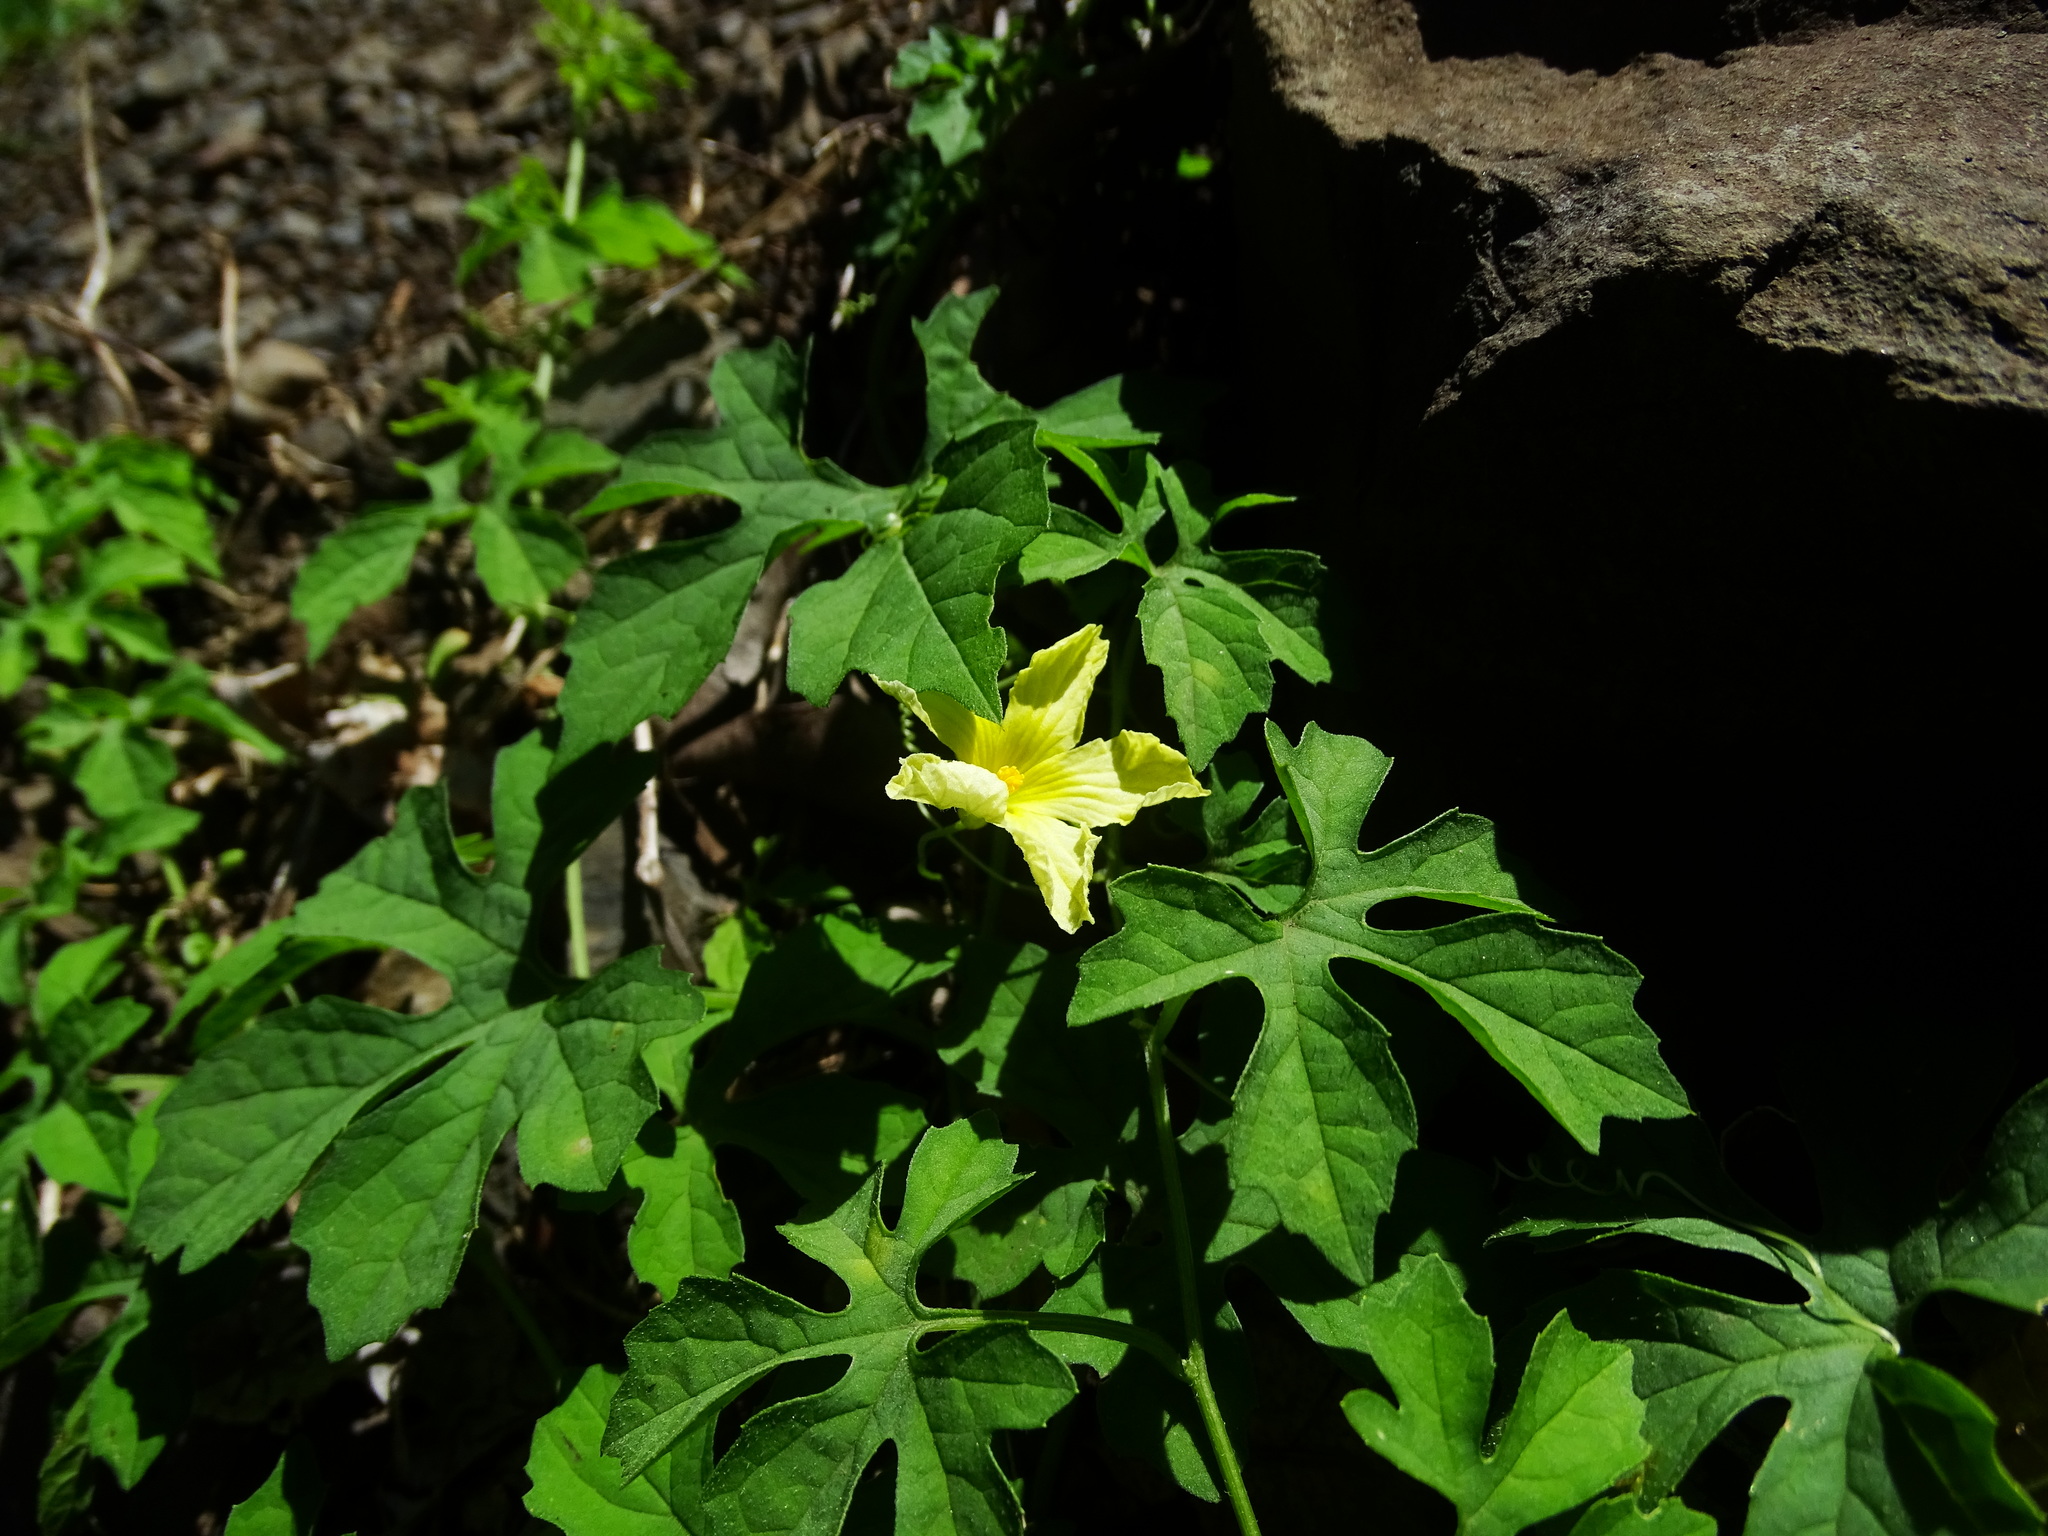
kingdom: Plantae
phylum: Tracheophyta
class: Magnoliopsida
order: Cucurbitales
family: Cucurbitaceae
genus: Momordica
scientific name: Momordica charantia
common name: Balsampear
